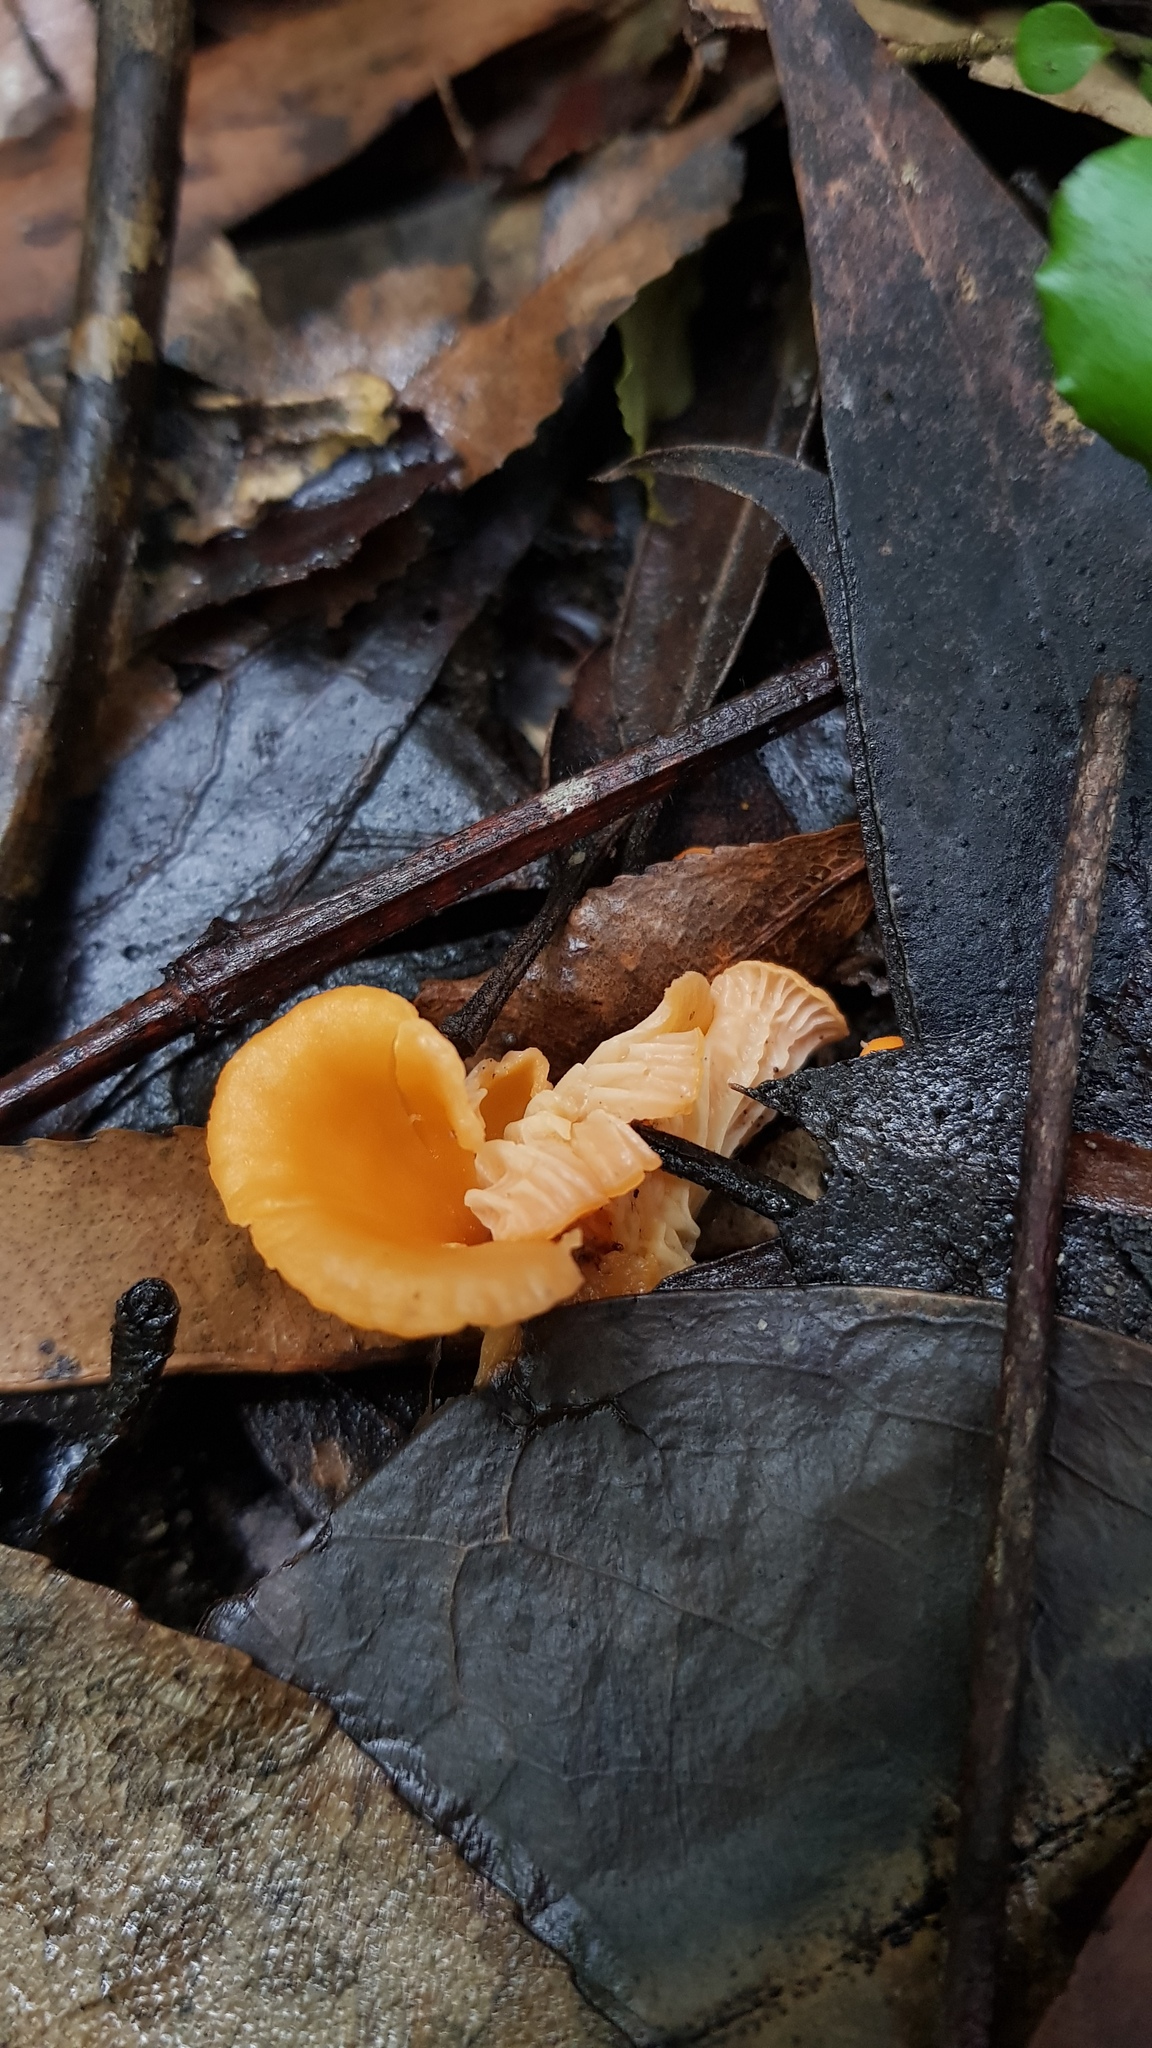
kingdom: Fungi
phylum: Basidiomycota
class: Agaricomycetes
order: Cantharellales
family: Hydnaceae
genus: Cantharellus
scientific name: Cantharellus
